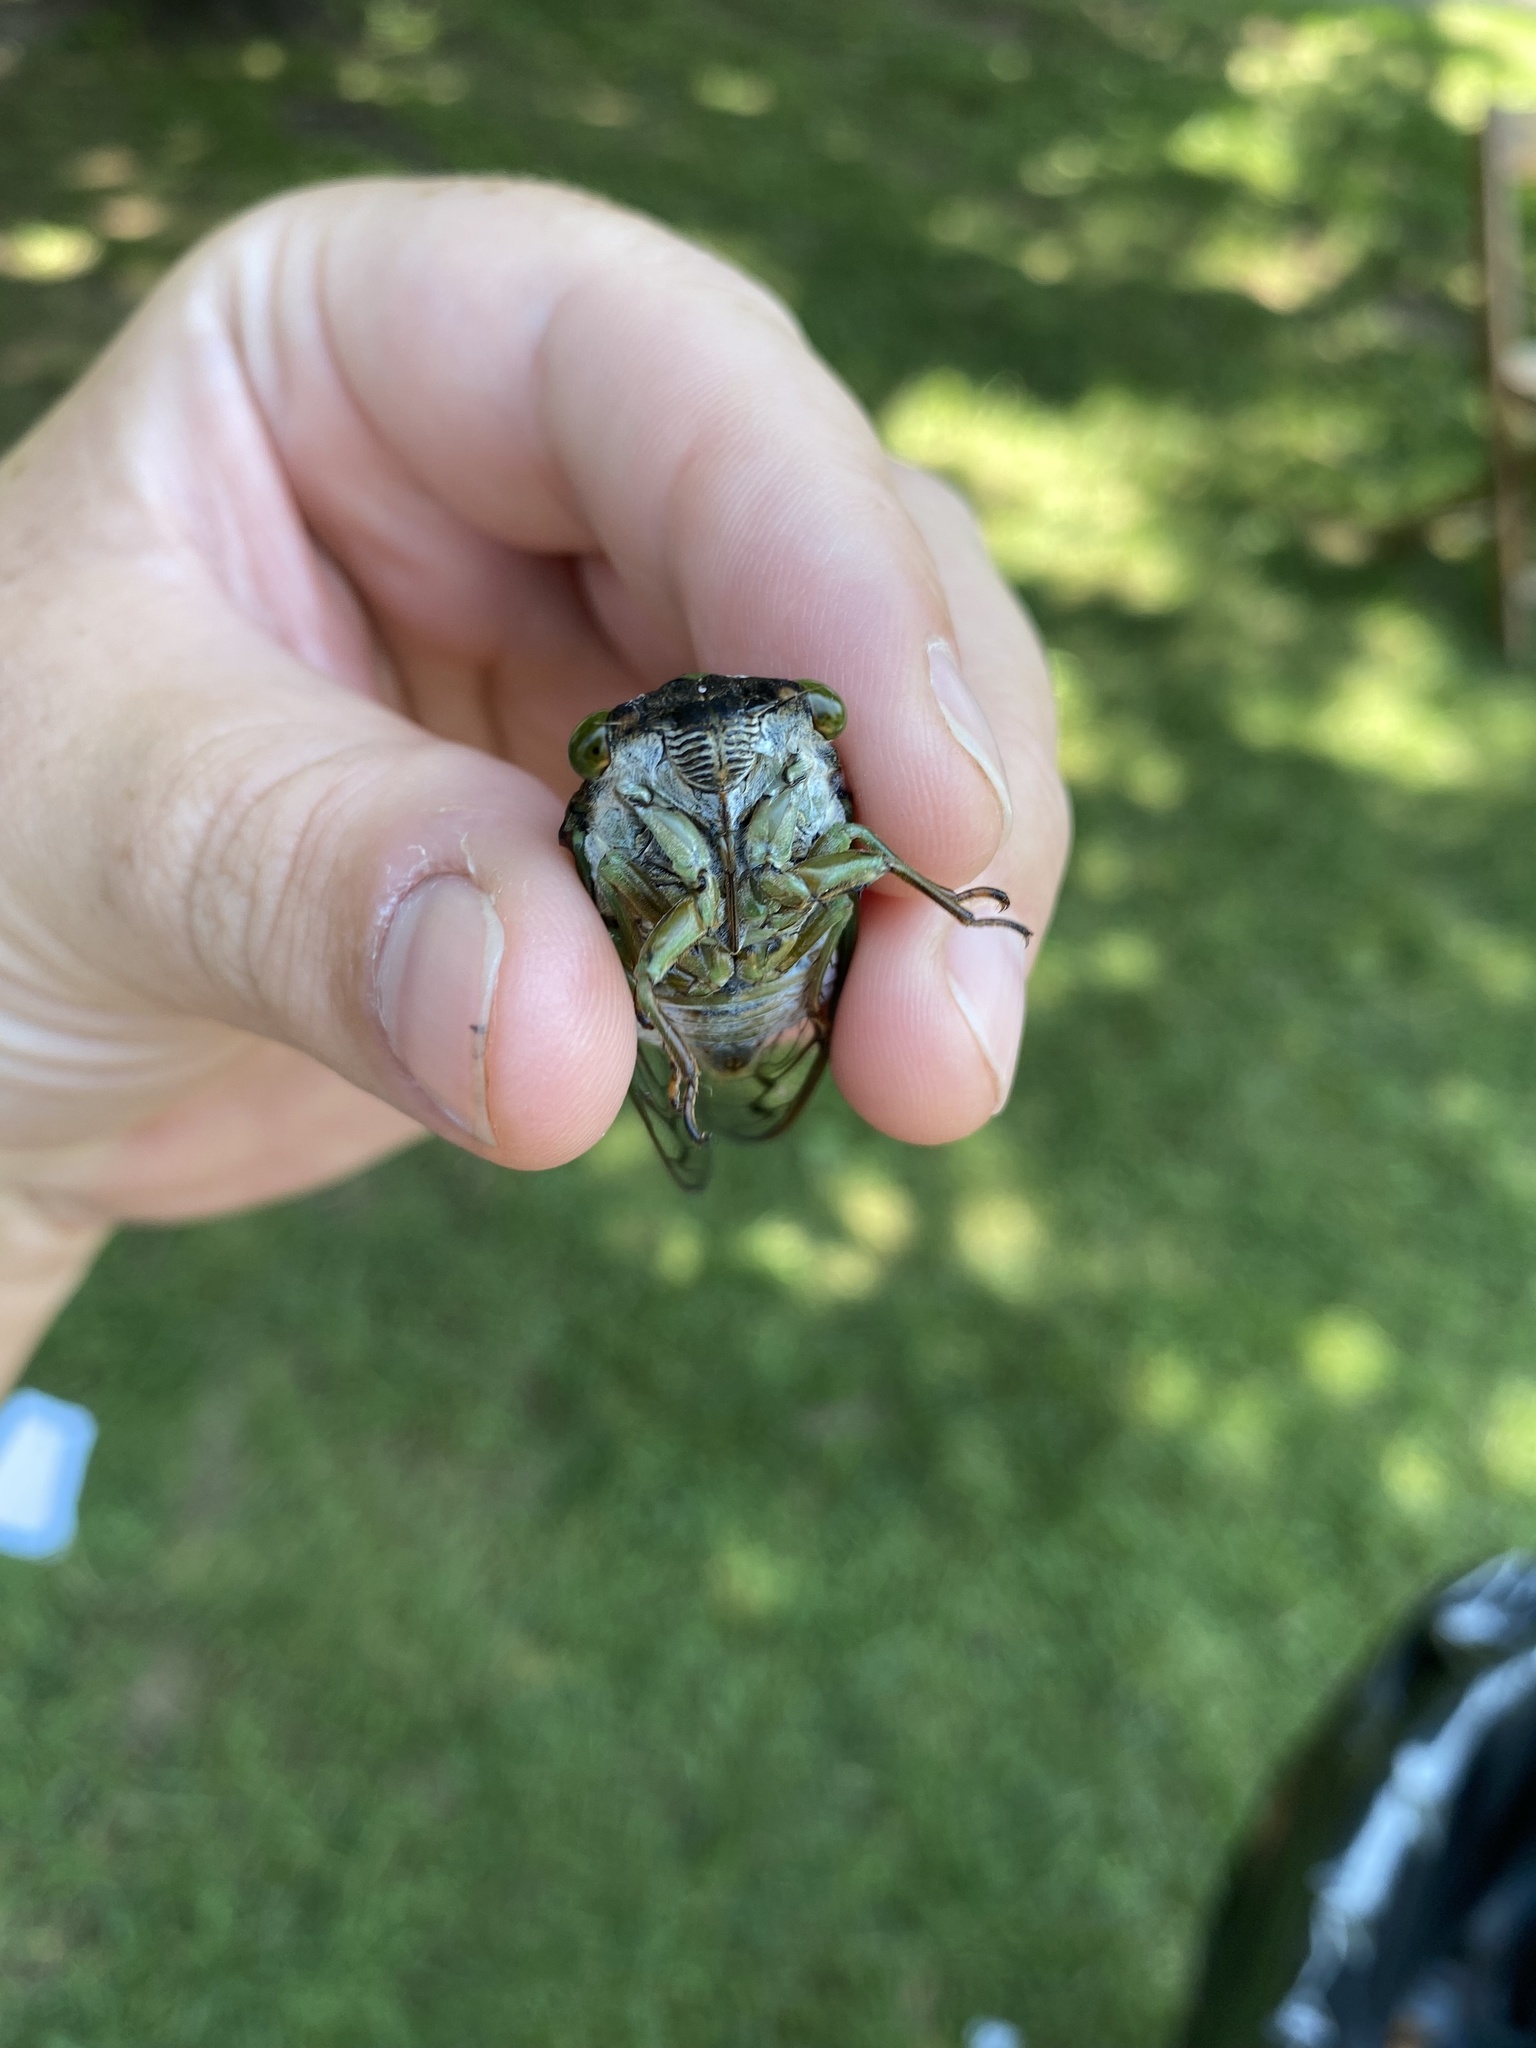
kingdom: Animalia
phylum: Arthropoda
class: Insecta
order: Hemiptera
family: Cicadidae
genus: Neotibicen
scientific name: Neotibicen tibicen
